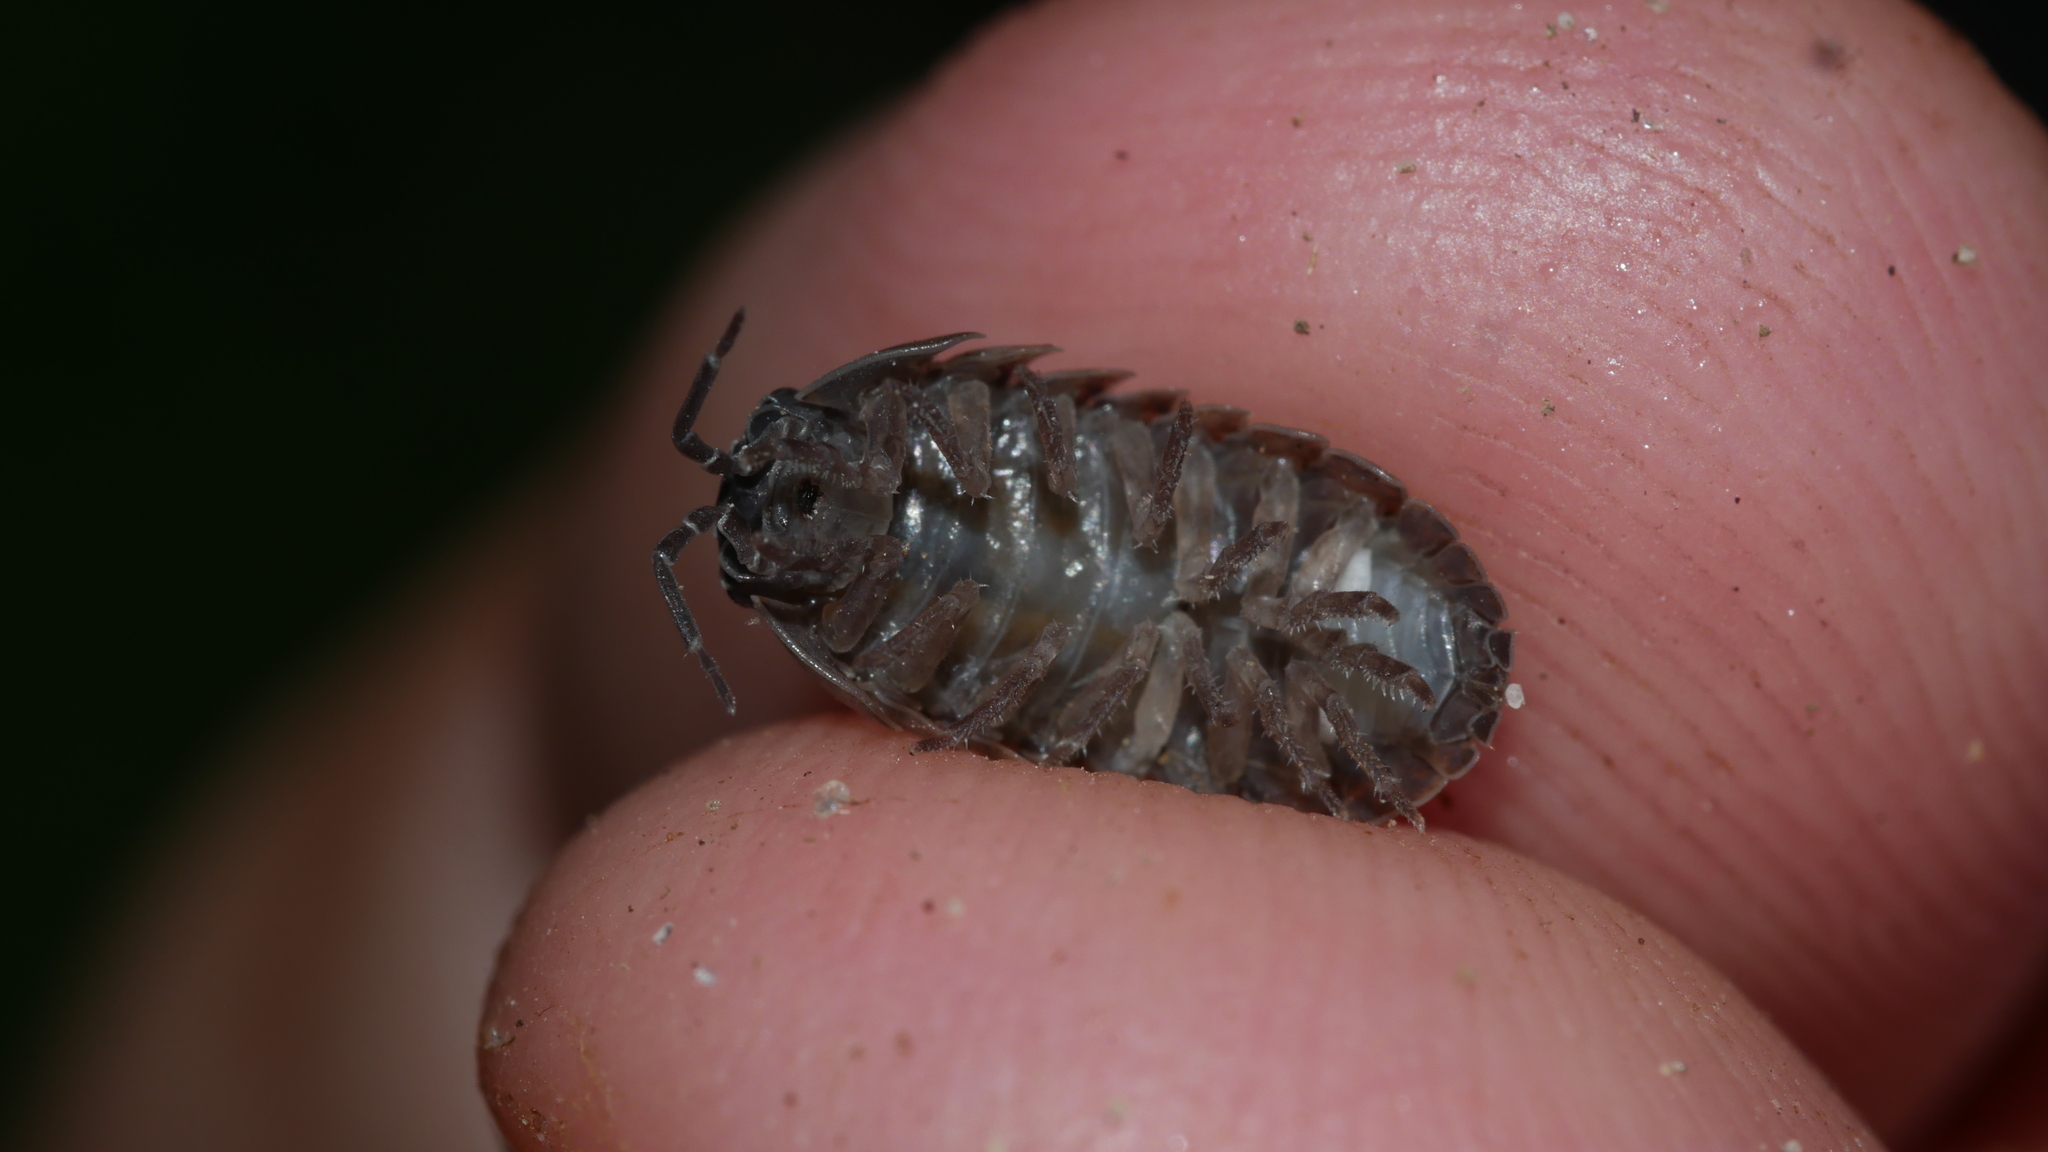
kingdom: Animalia
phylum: Arthropoda
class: Malacostraca
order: Isopoda
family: Armadillidiidae
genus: Armadillidium
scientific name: Armadillidium vulgare
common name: Common pill woodlouse
